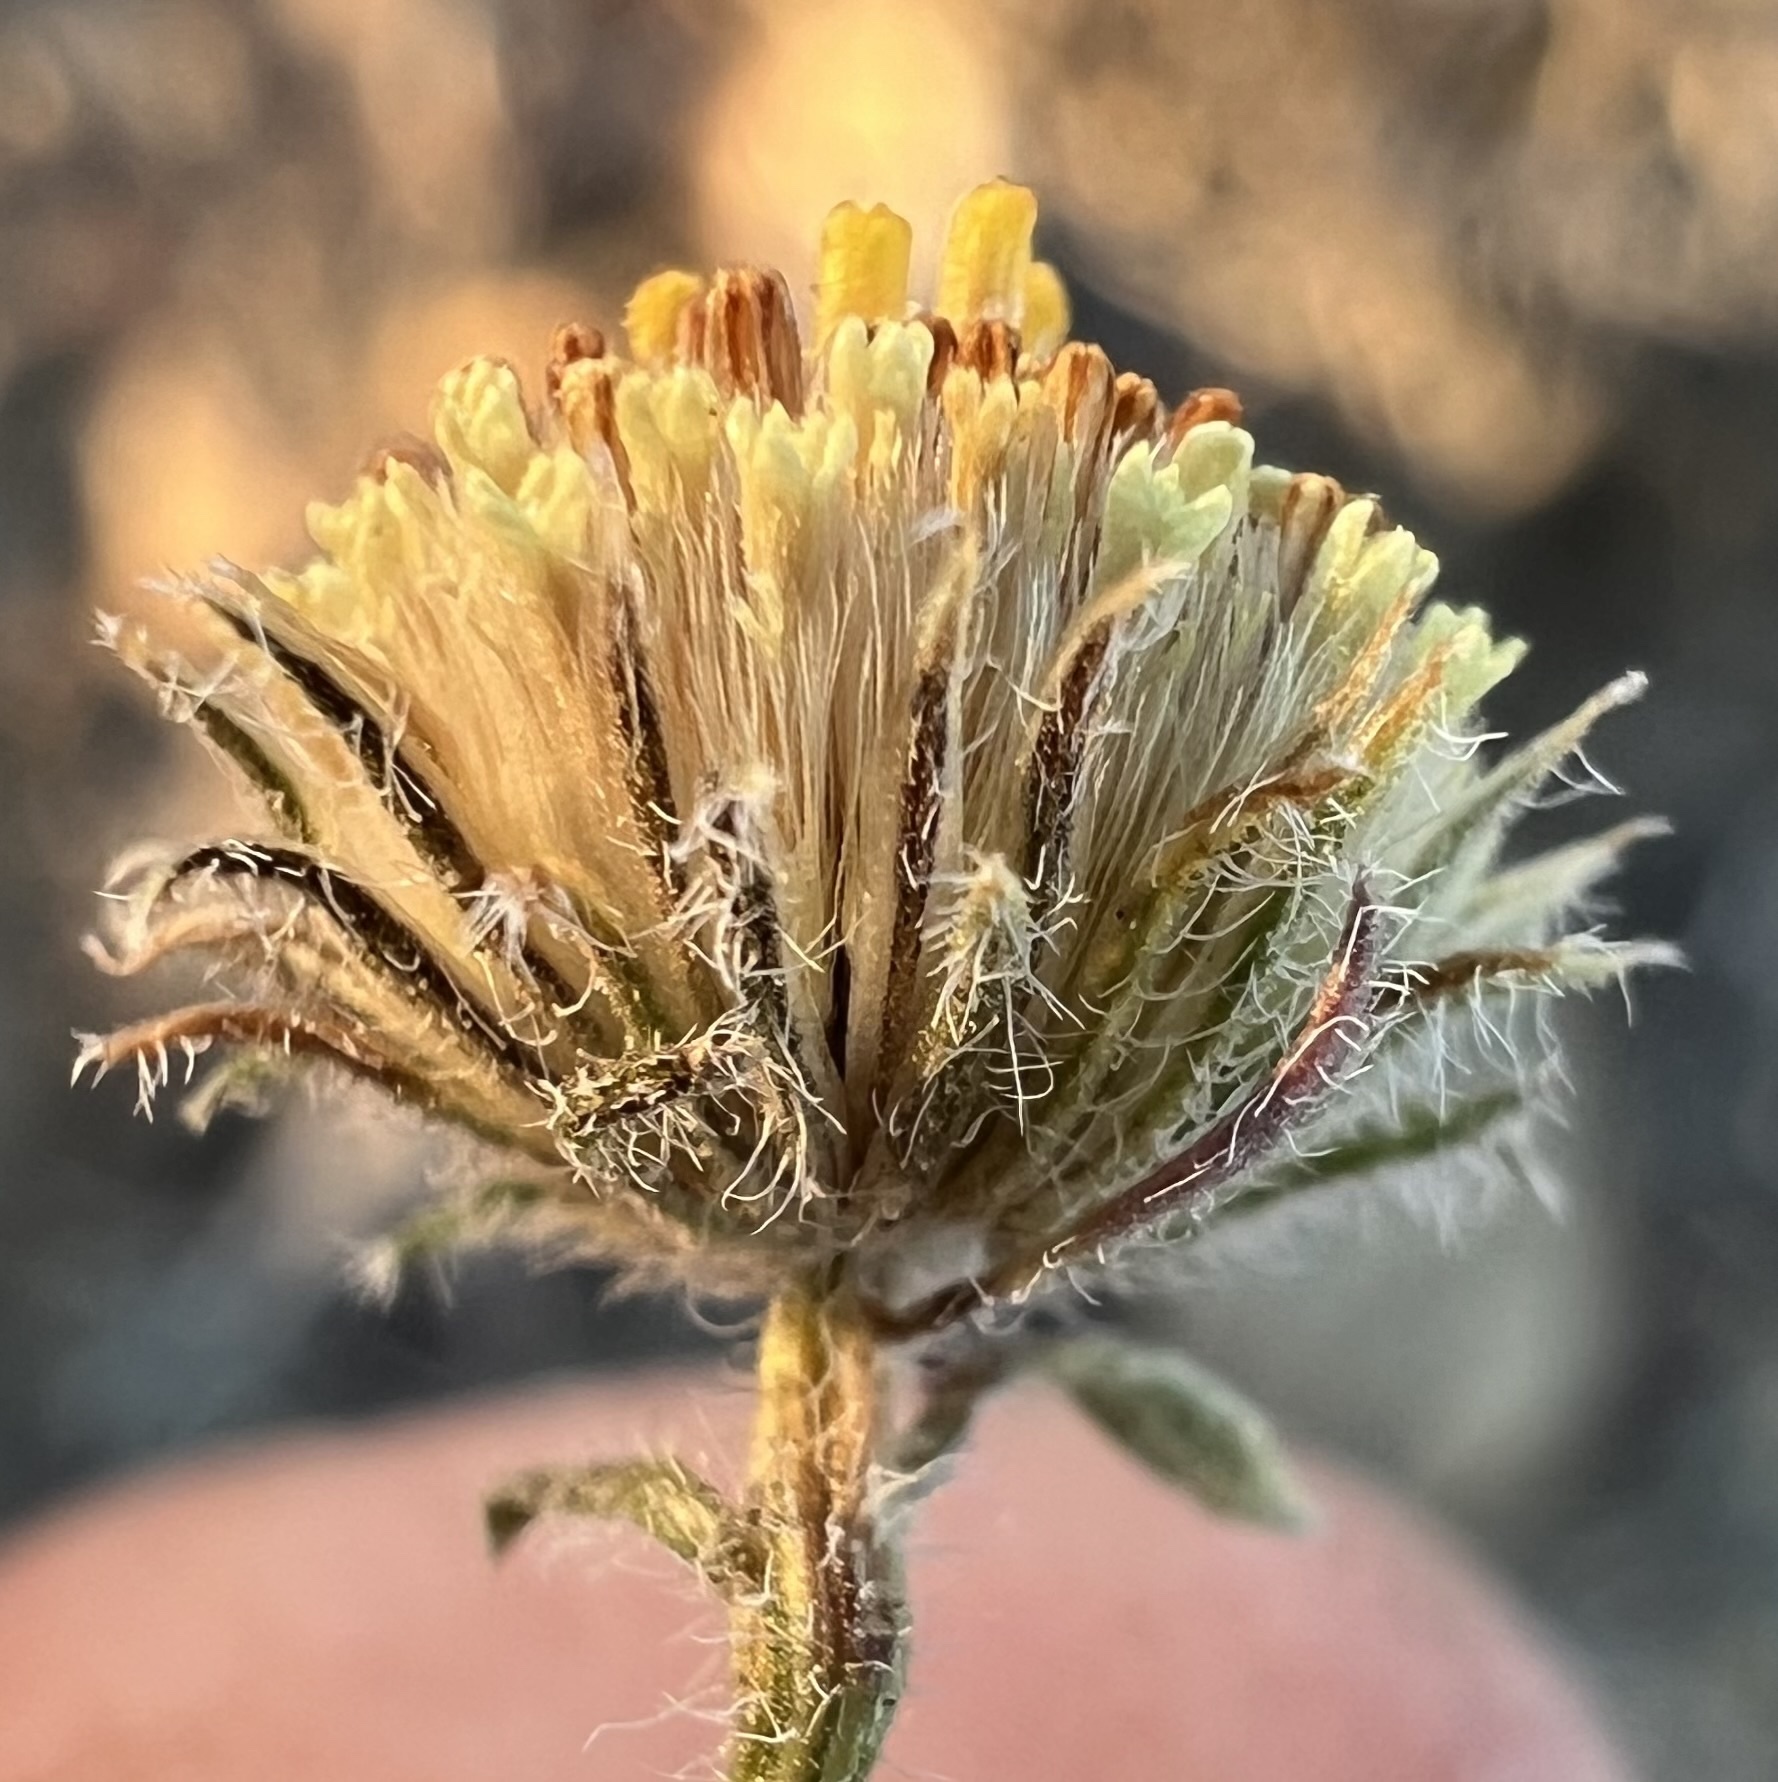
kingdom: Plantae
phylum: Tracheophyta
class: Magnoliopsida
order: Asterales
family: Asteraceae
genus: Erigeron
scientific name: Erigeron aphanactis
